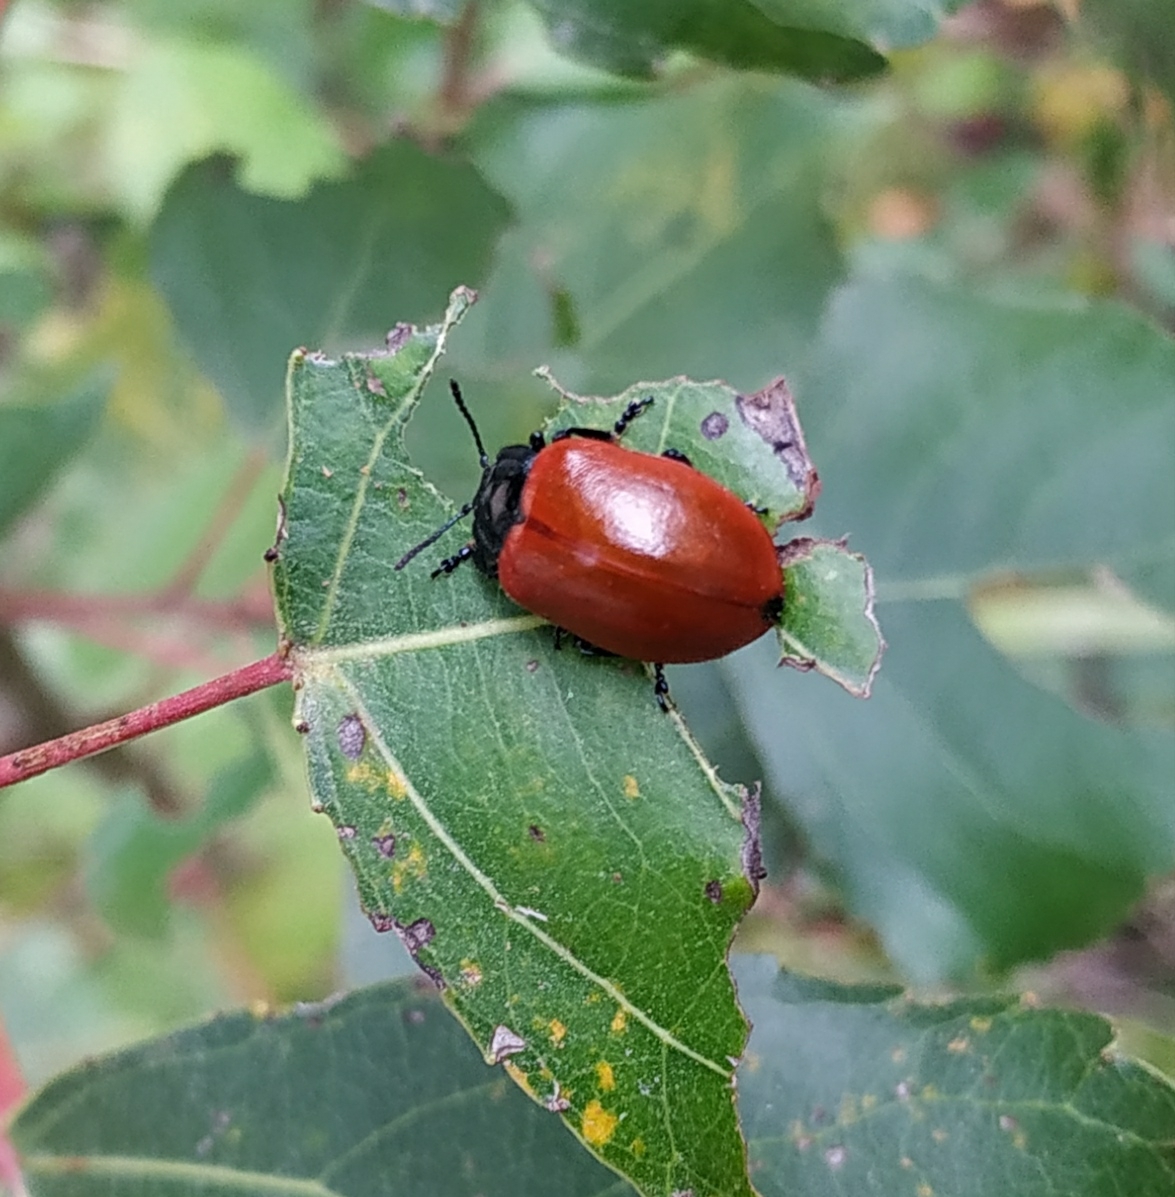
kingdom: Animalia
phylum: Arthropoda
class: Insecta
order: Coleoptera
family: Chrysomelidae
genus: Chrysomela
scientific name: Chrysomela populi
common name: Red poplar leaf beetle
